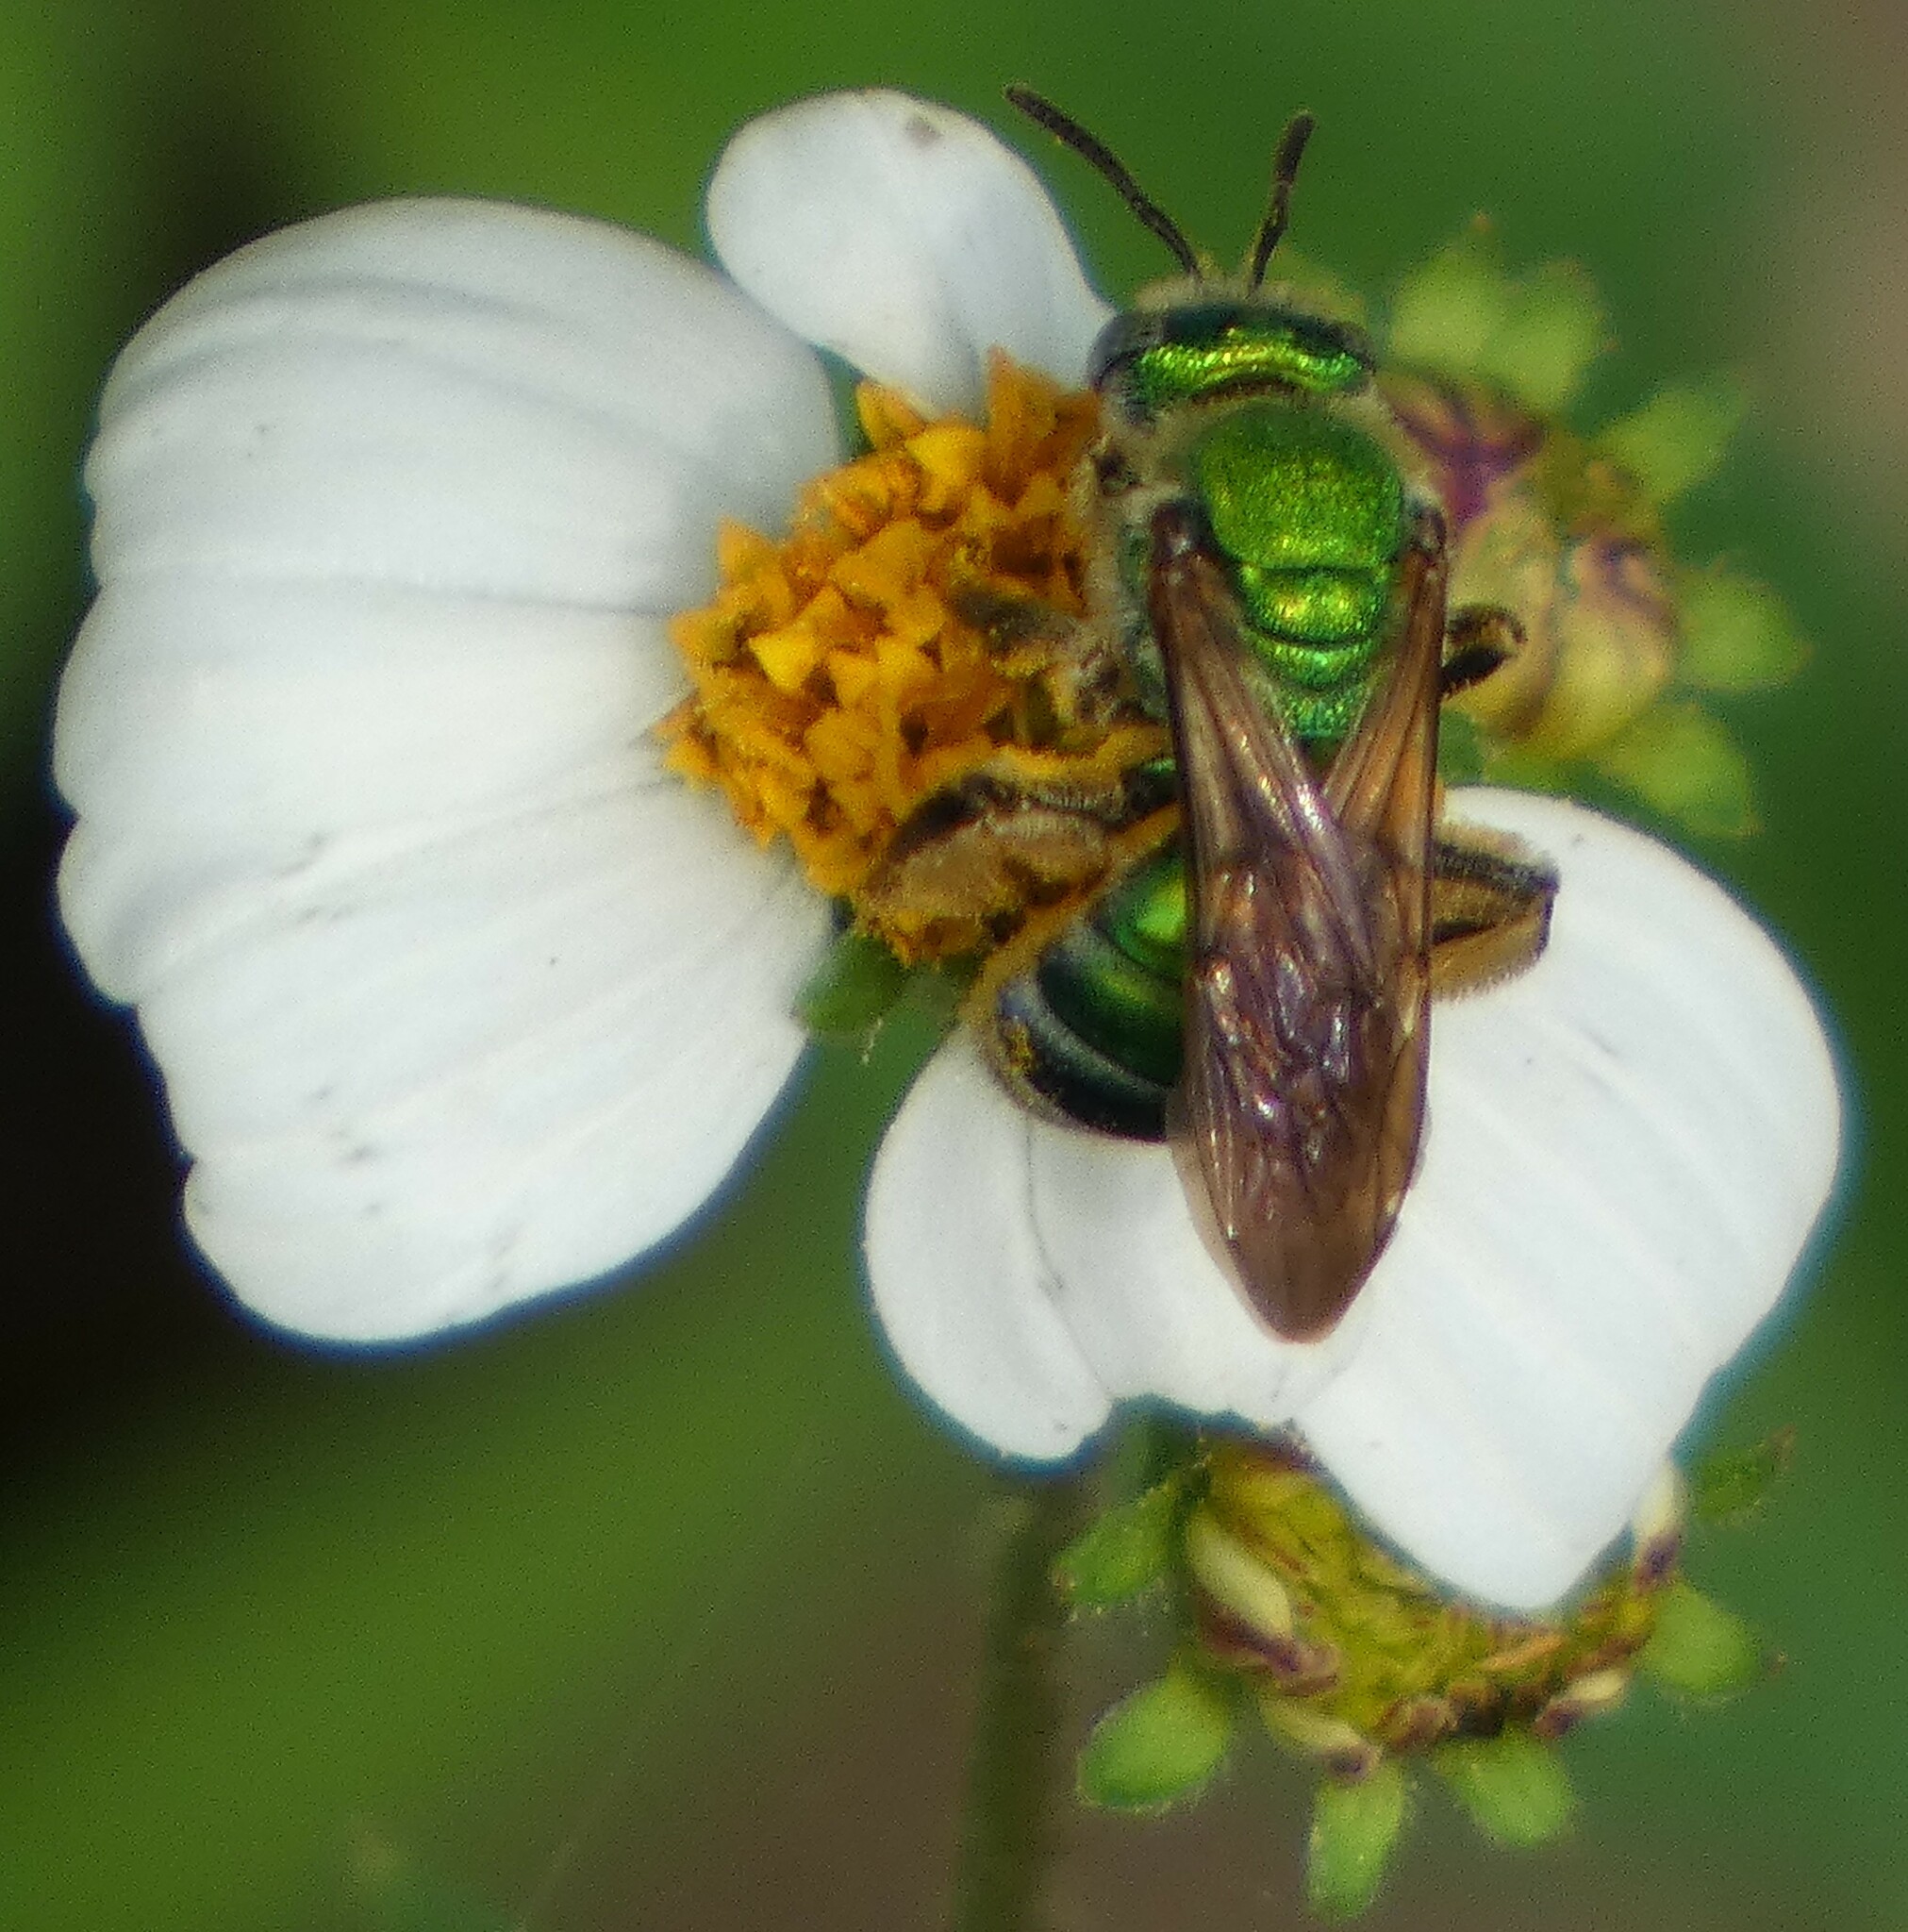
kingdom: Animalia
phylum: Arthropoda
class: Insecta
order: Hymenoptera
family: Halictidae
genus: Agapostemon
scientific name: Agapostemon splendens
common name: Brown-winged striped sweat bee
